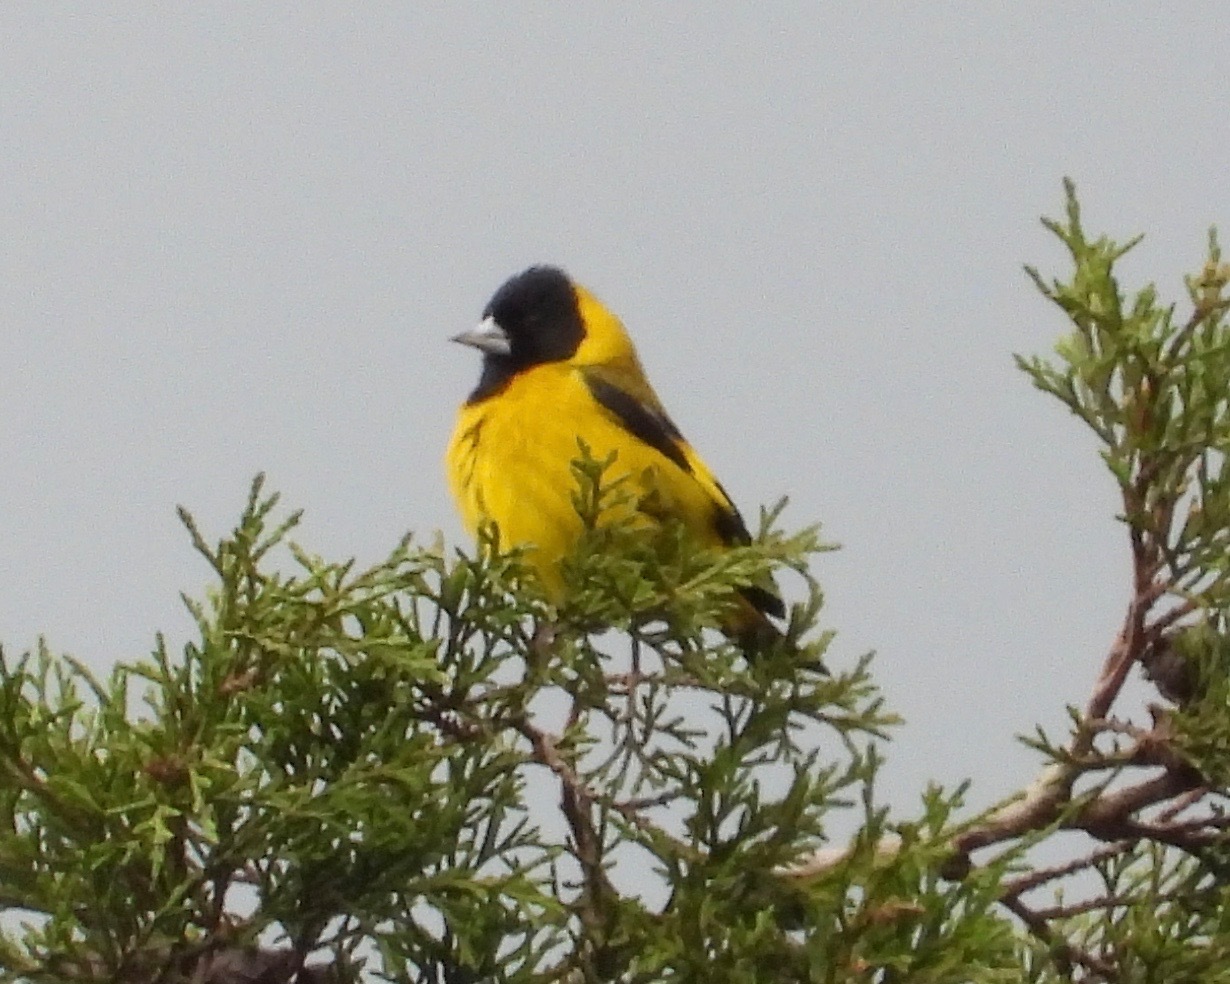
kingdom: Animalia
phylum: Chordata
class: Aves
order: Passeriformes
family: Fringillidae
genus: Spinus
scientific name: Spinus notatus
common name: Black-headed siskin
